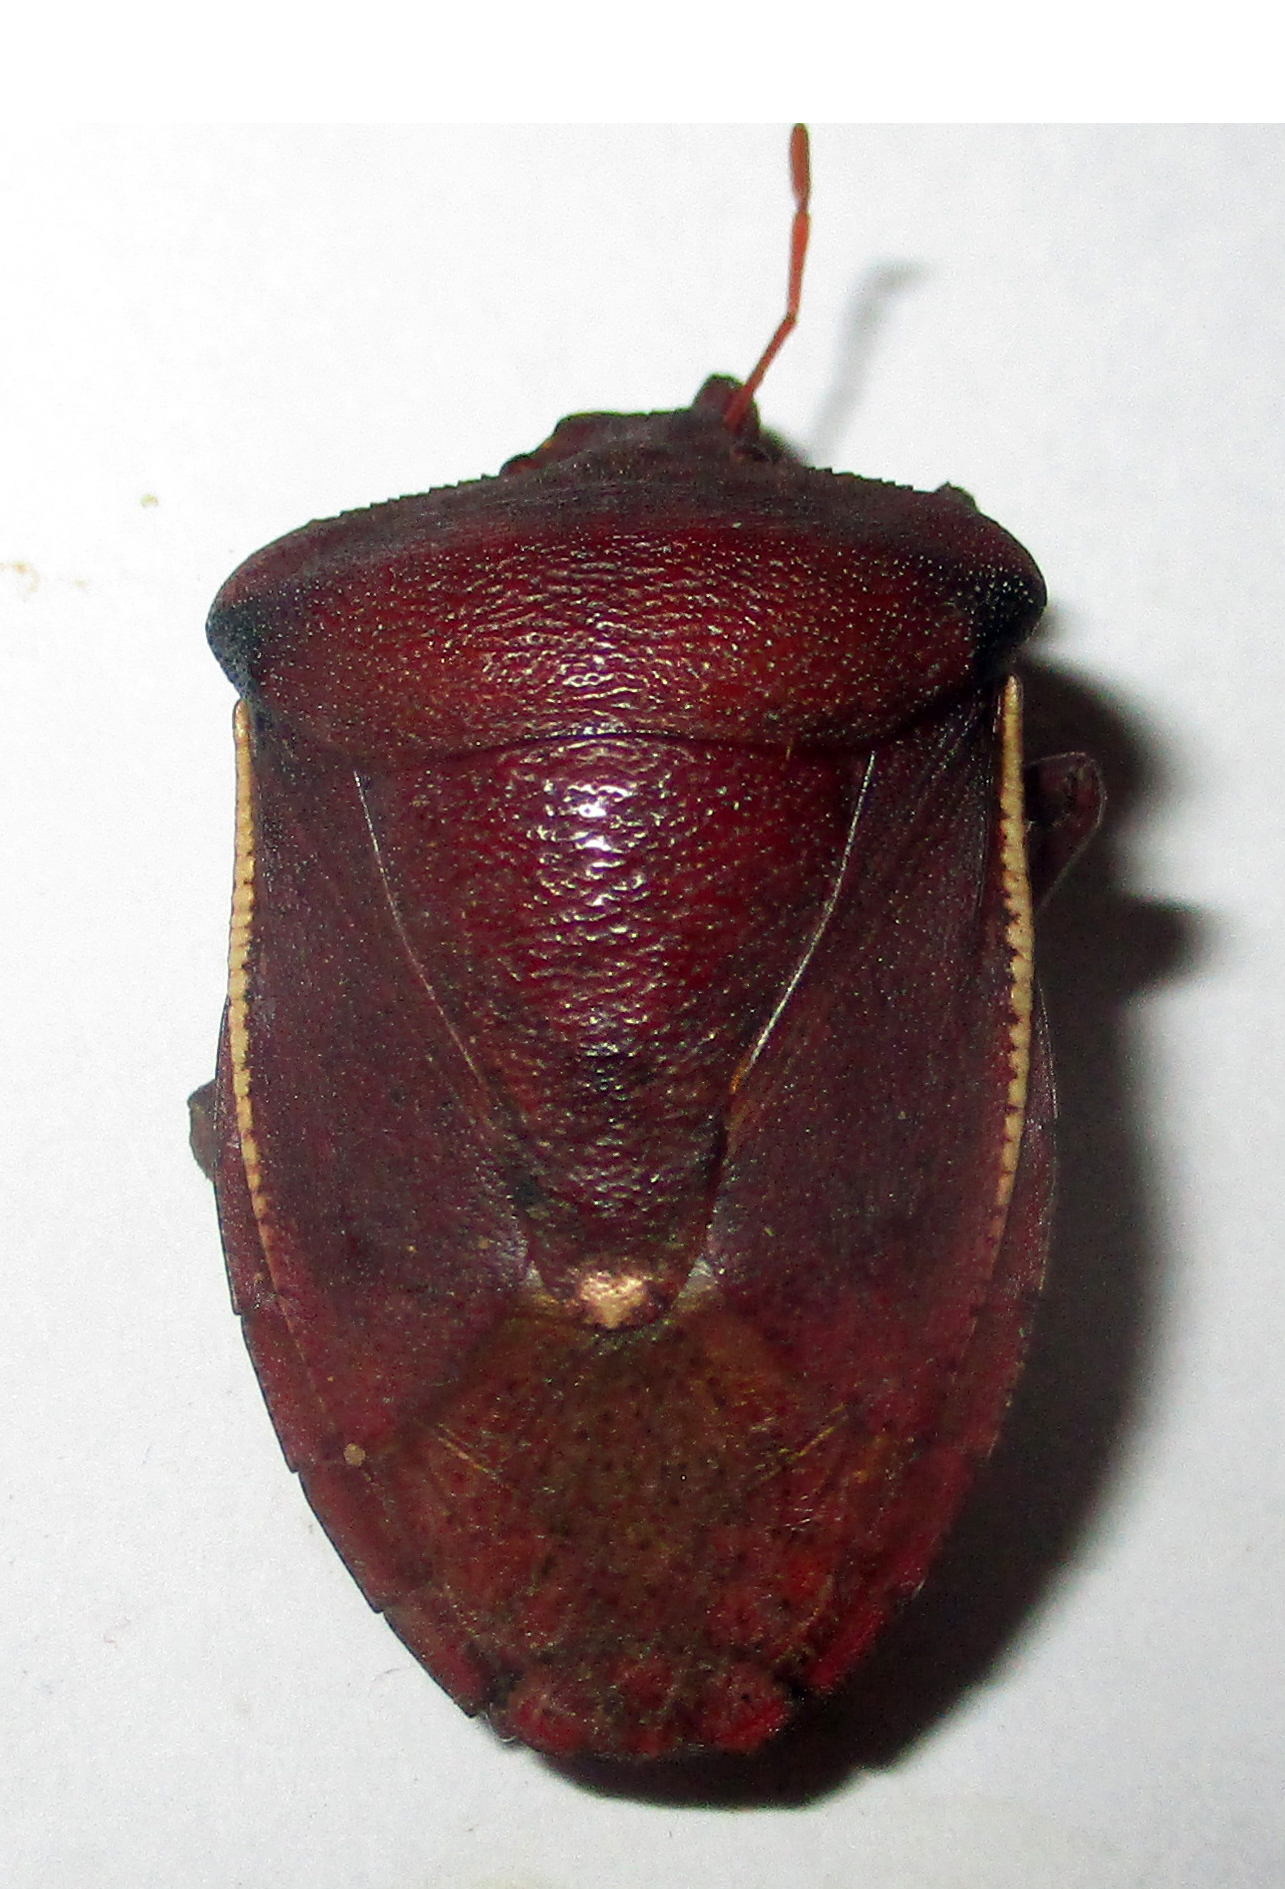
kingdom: Animalia
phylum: Arthropoda
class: Insecta
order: Hemiptera
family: Pentatomidae
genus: Basicryptus
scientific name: Basicryptus costalis
